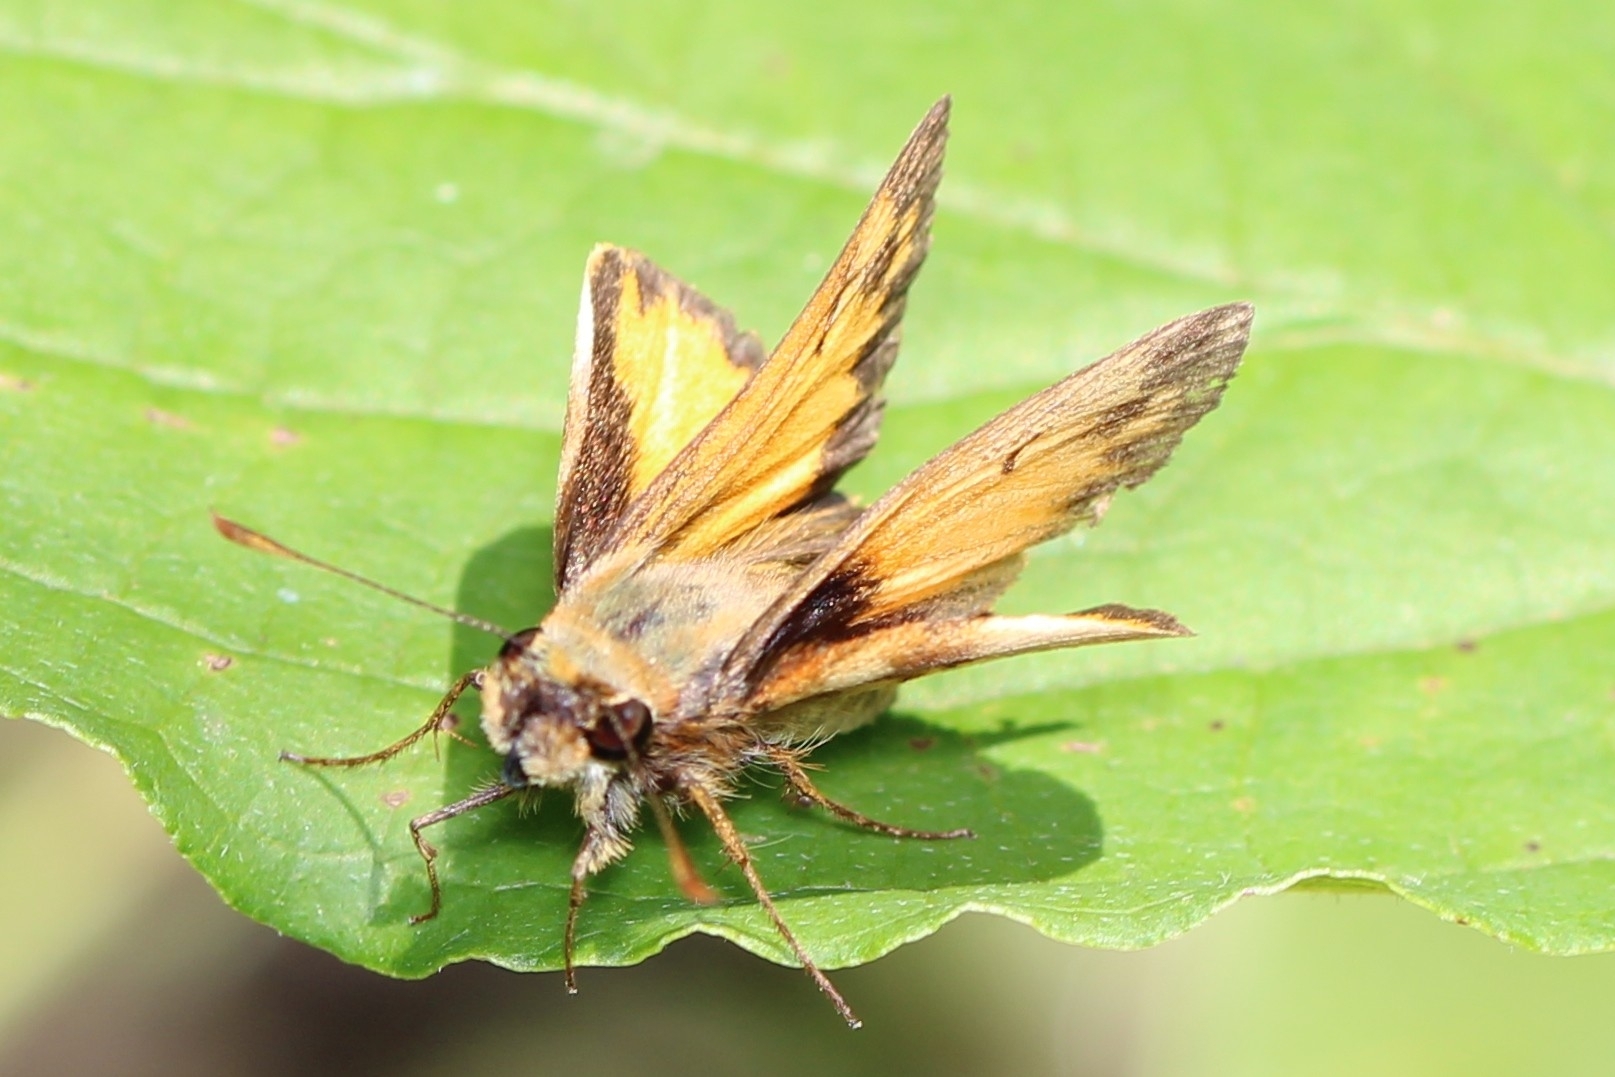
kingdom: Animalia
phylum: Arthropoda
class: Insecta
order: Lepidoptera
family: Hesperiidae
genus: Lon
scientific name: Lon zabulon
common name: Zabulon skipper
